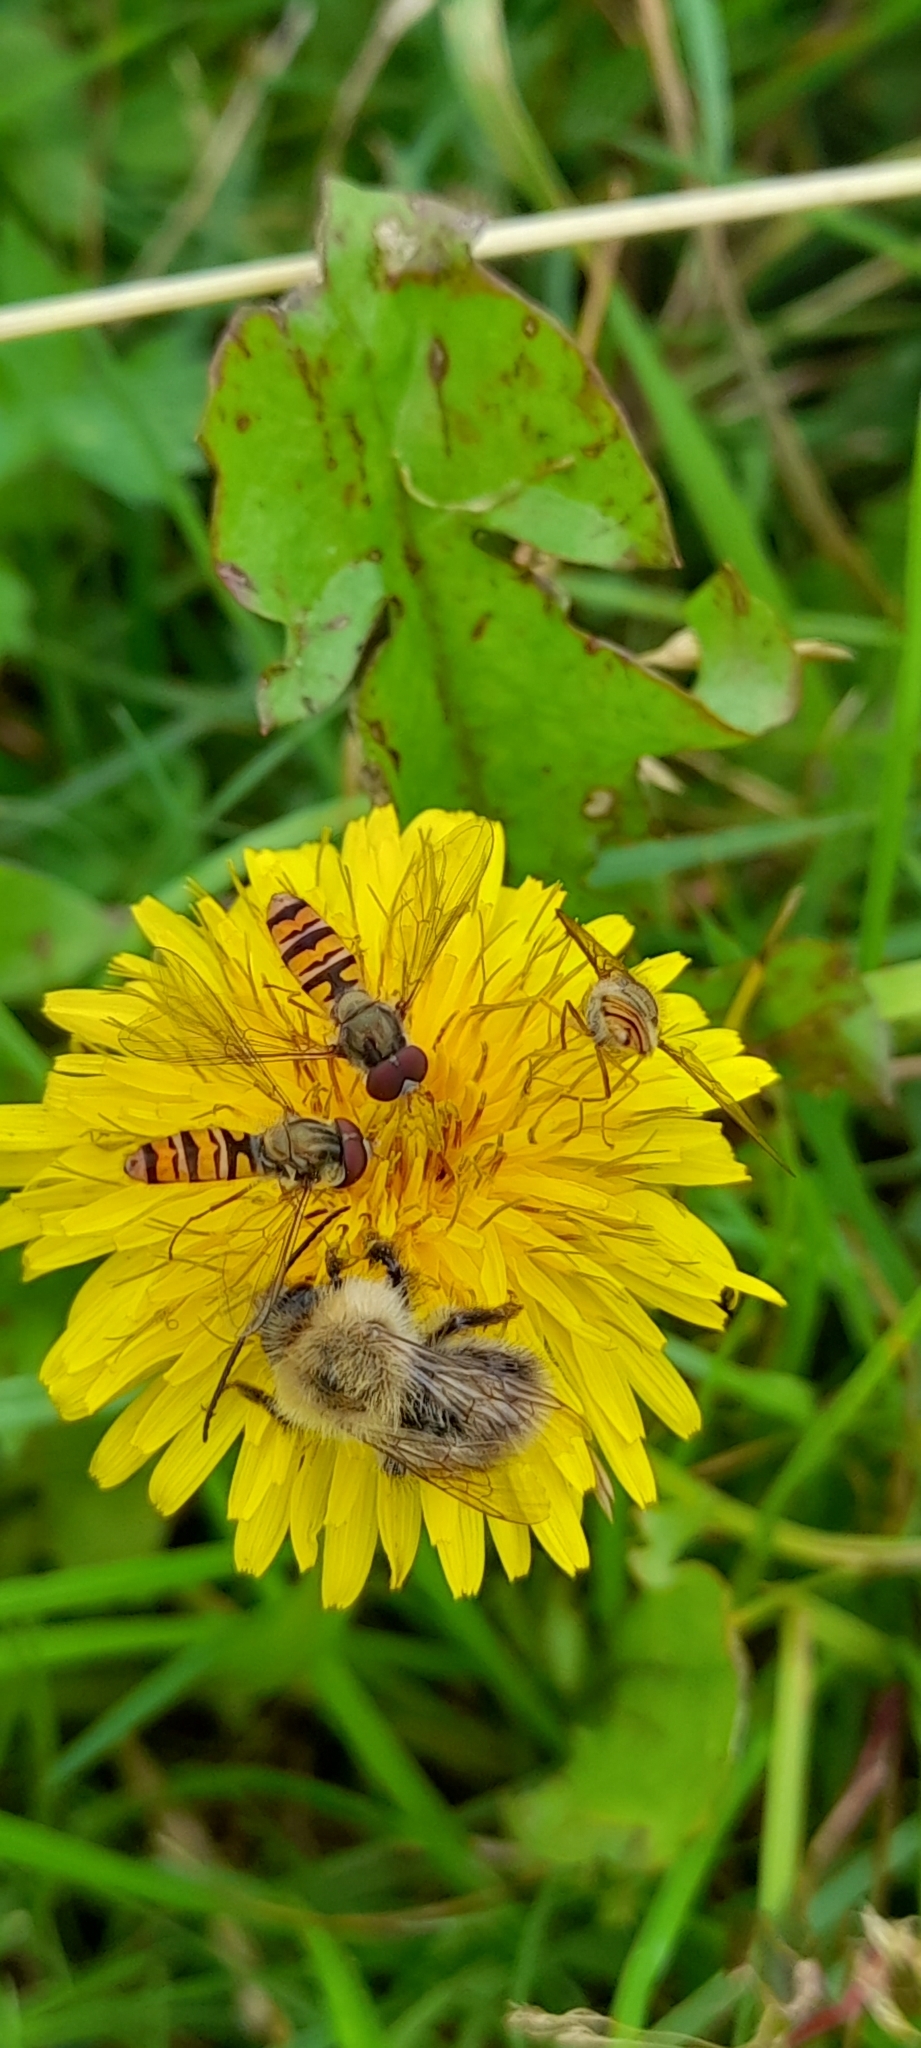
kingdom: Animalia
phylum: Arthropoda
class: Insecta
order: Diptera
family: Syrphidae
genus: Episyrphus
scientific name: Episyrphus balteatus
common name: Marmalade hoverfly
